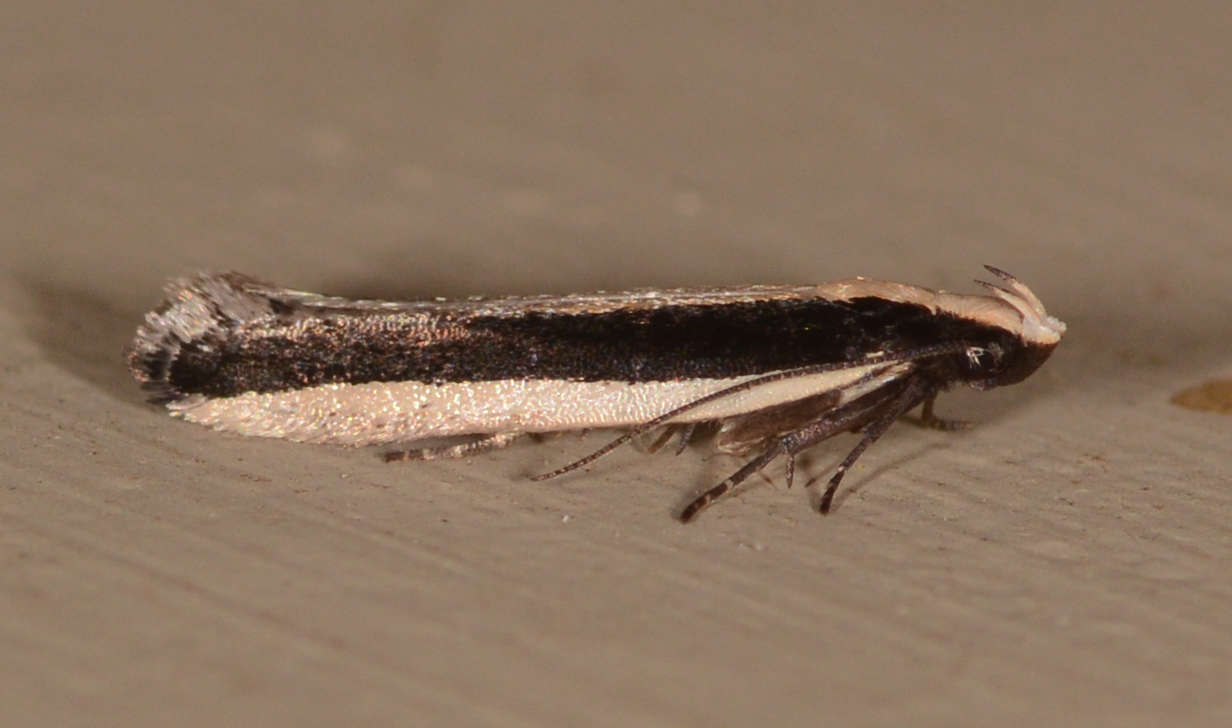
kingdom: Animalia
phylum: Arthropoda
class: Insecta
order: Lepidoptera
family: Gelechiidae
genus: Macrenches
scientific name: Macrenches clerica
